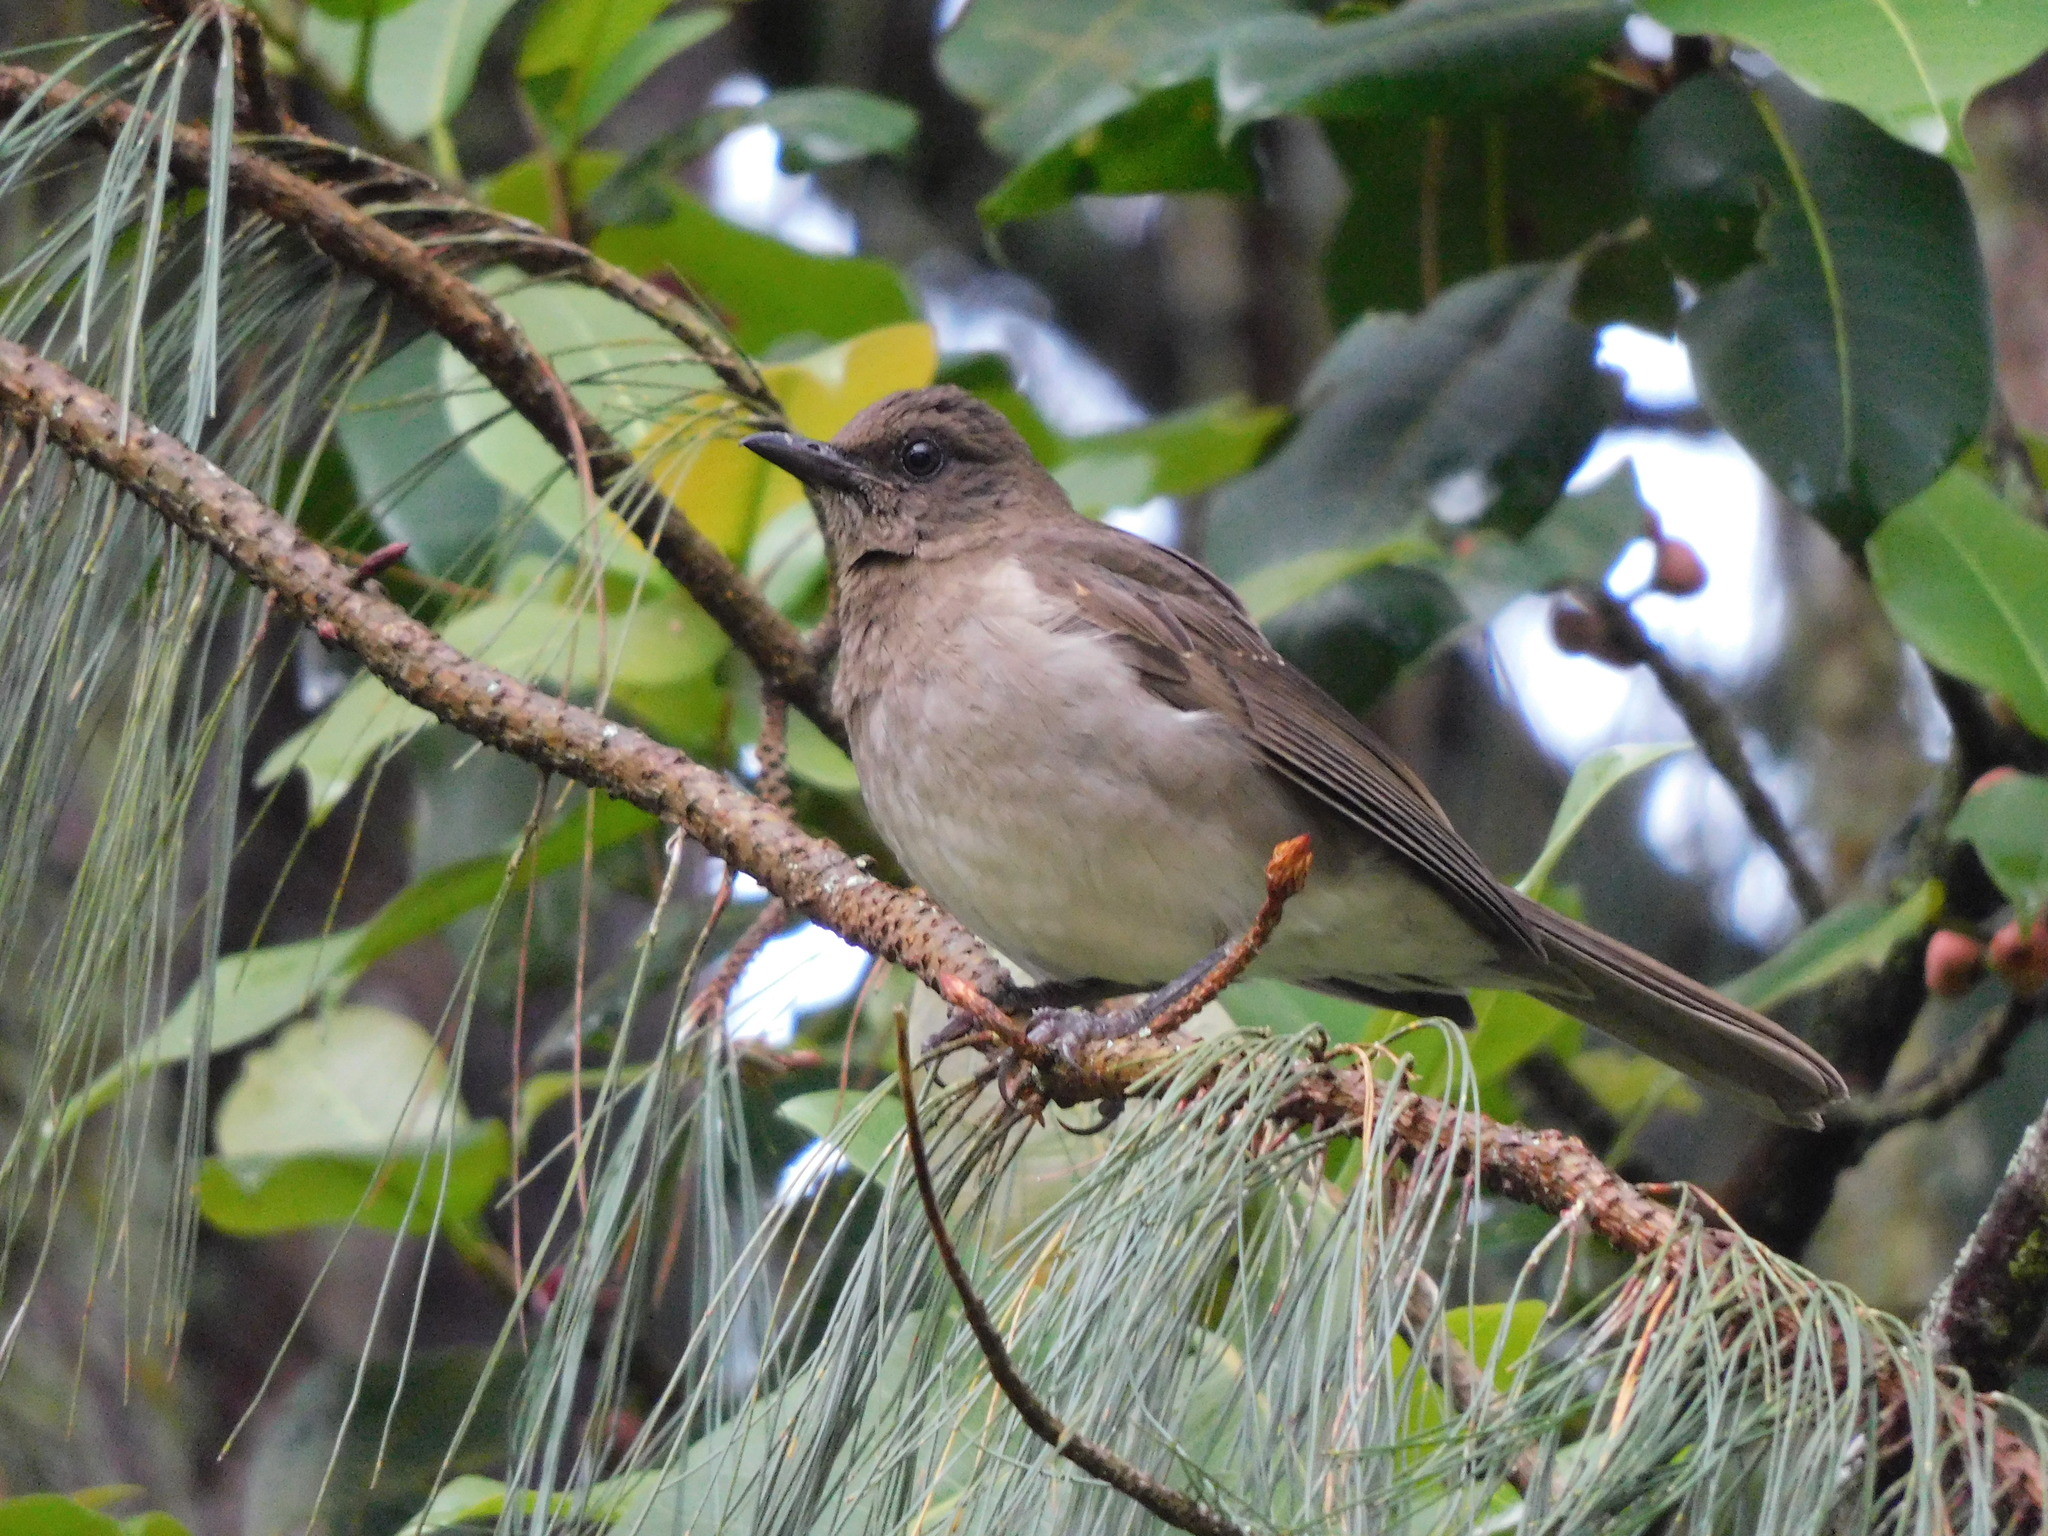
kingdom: Animalia
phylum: Chordata
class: Aves
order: Passeriformes
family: Turdidae
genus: Turdus
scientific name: Turdus ignobilis
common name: Black-billed thrush
